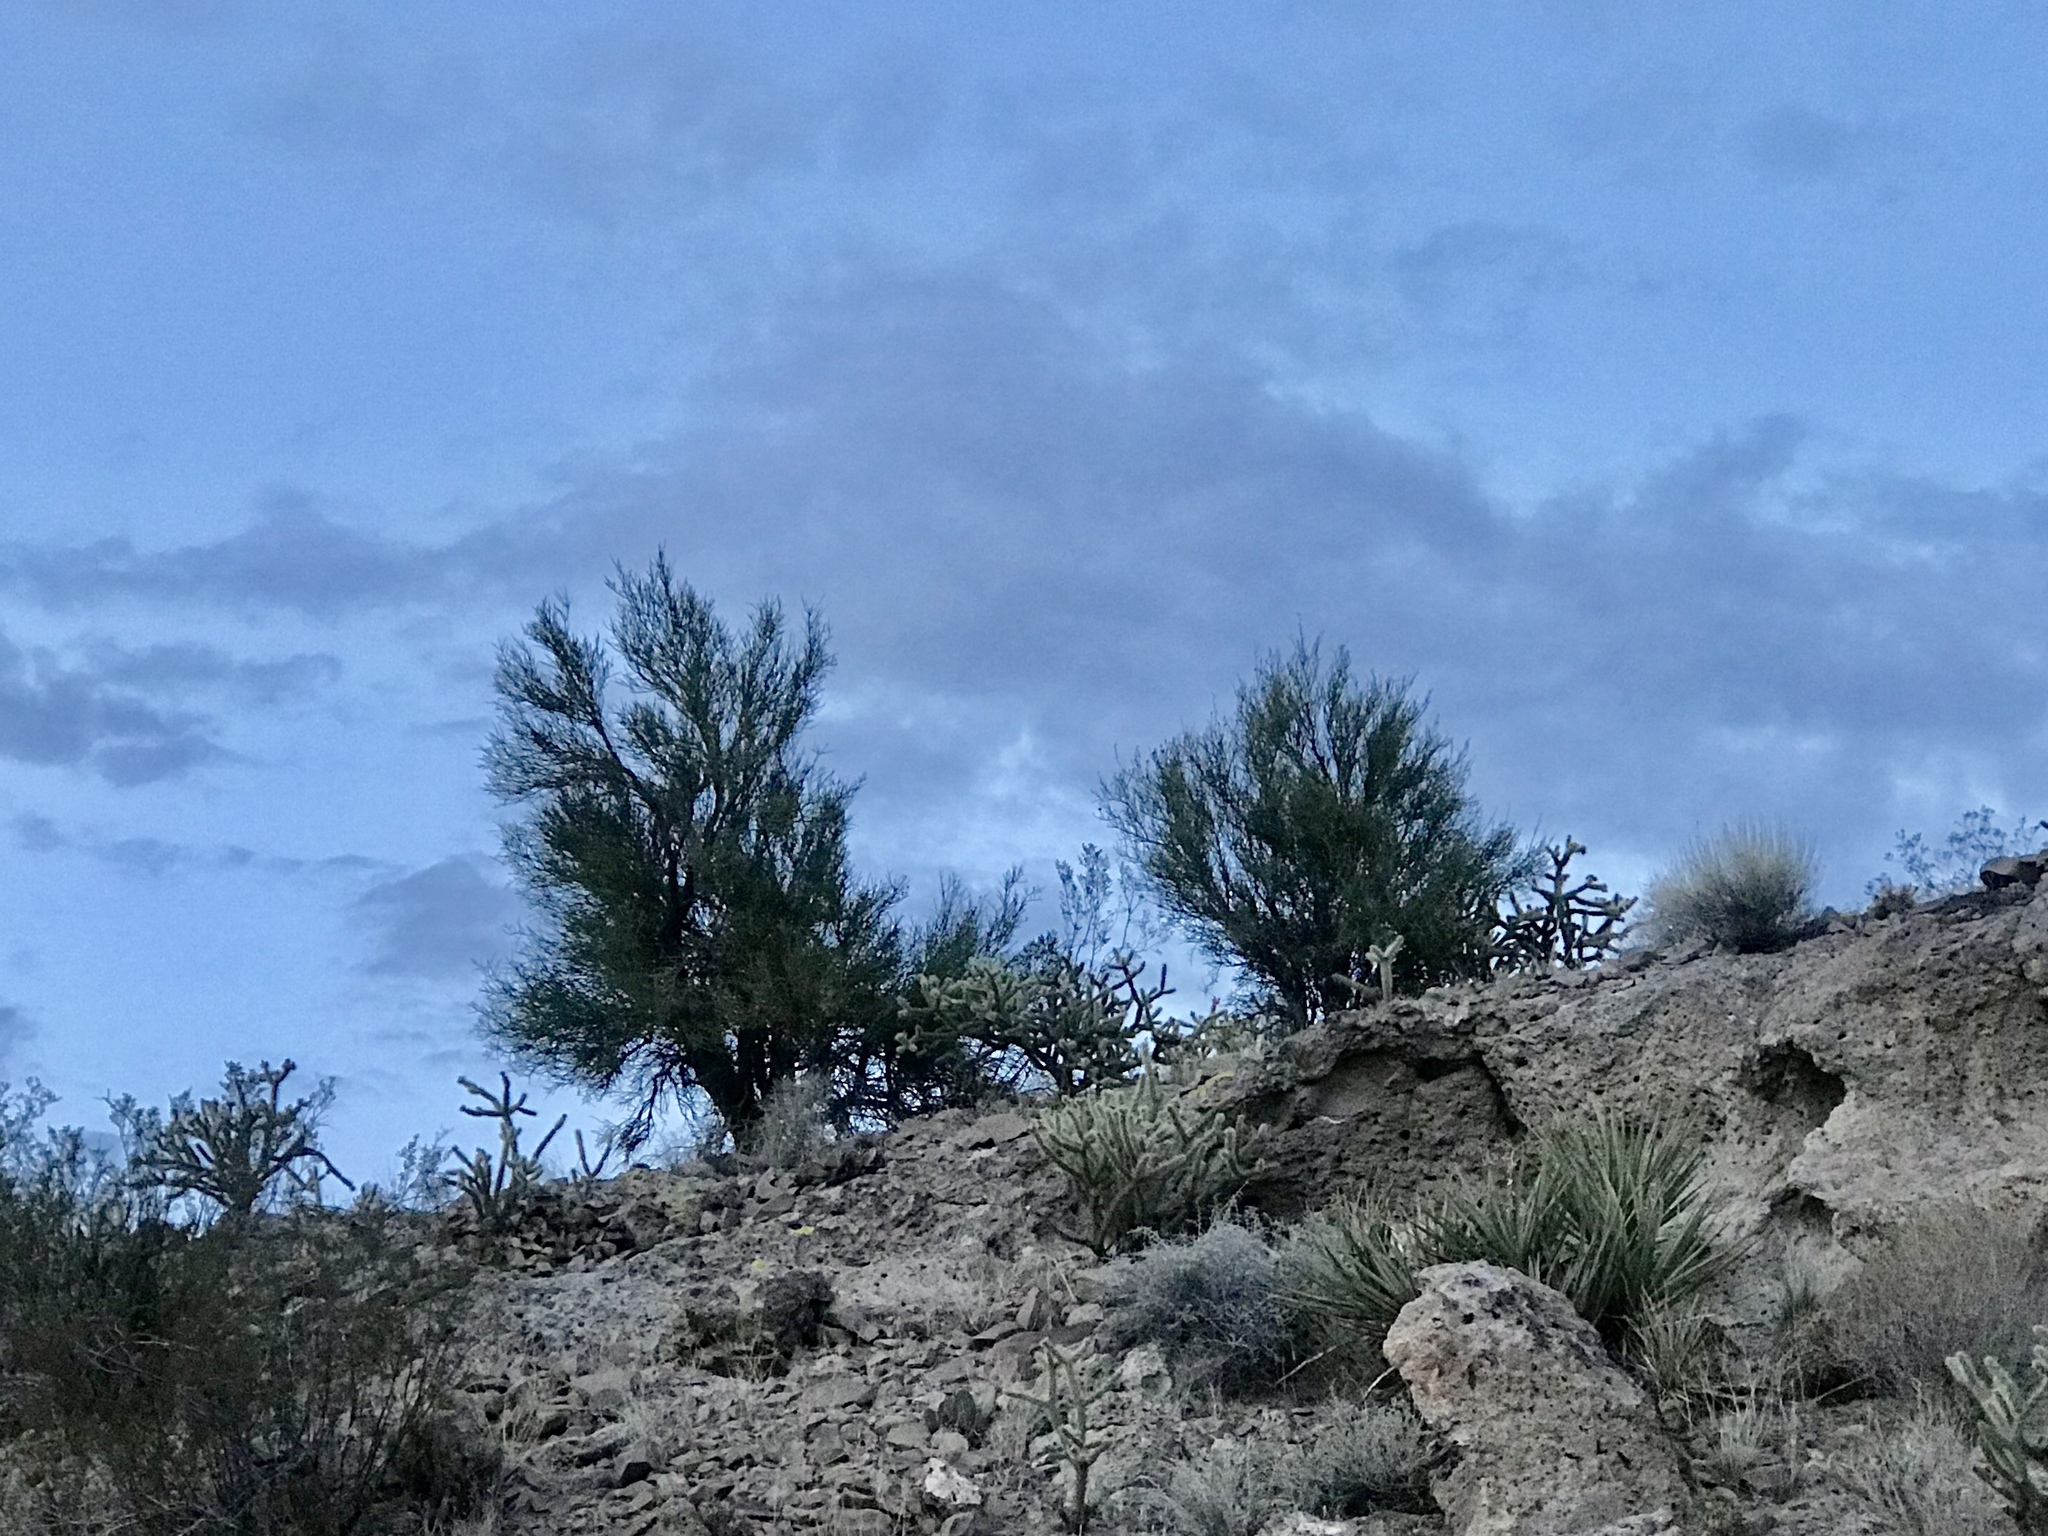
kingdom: Plantae
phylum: Tracheophyta
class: Magnoliopsida
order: Celastrales
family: Celastraceae
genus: Canotia
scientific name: Canotia holacantha
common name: Crucifixion thorns
